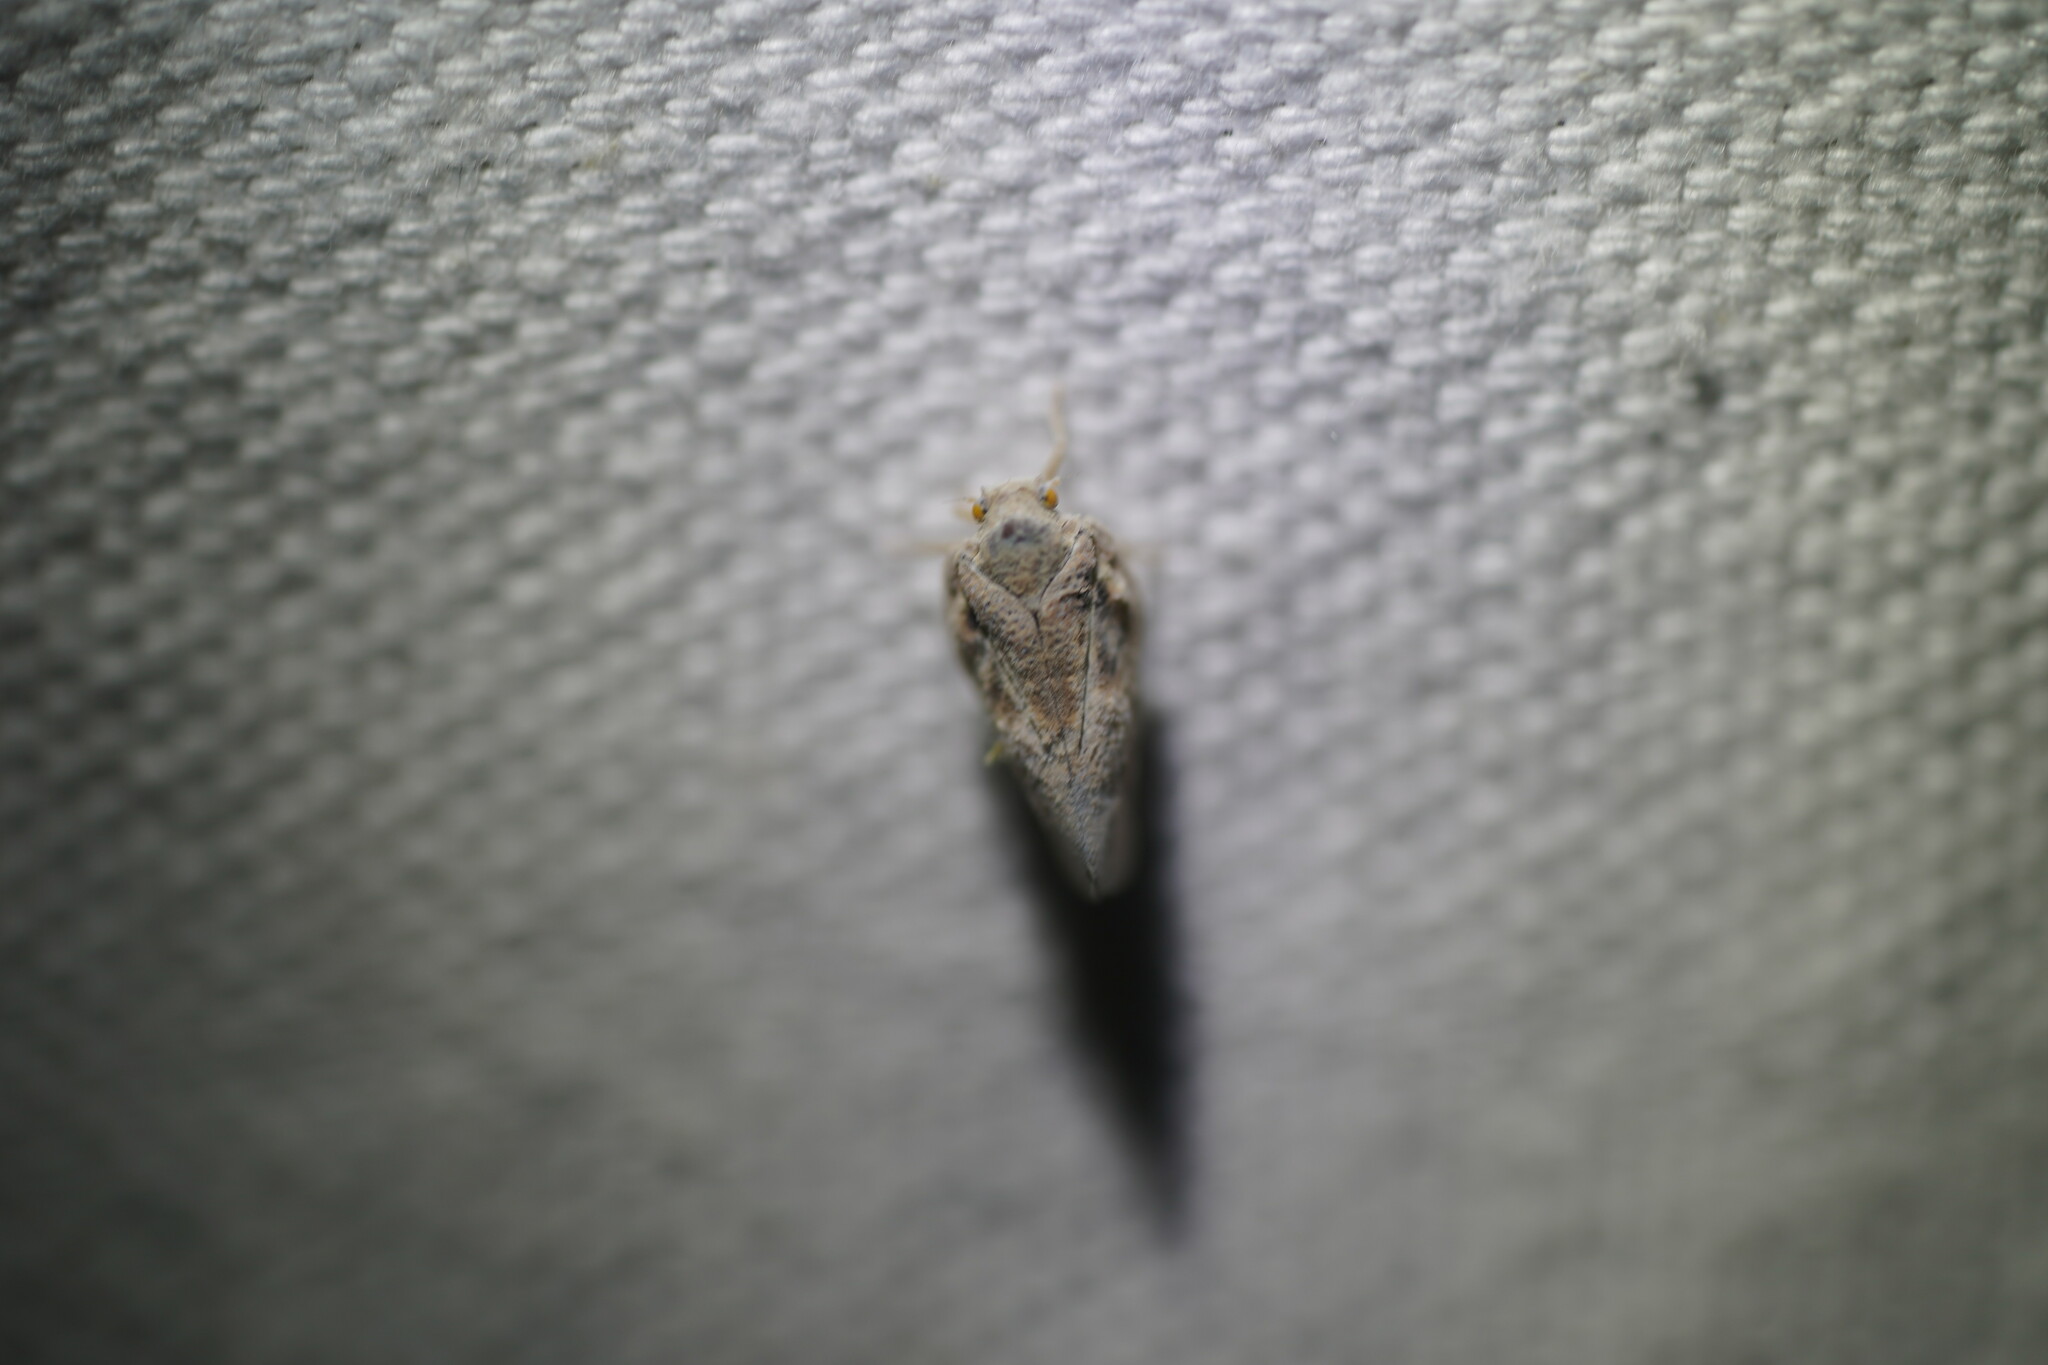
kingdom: Animalia
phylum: Arthropoda
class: Insecta
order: Hemiptera
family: Flatidae
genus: Metcalfa
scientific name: Metcalfa pruinosa
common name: Citrus flatid planthopper
